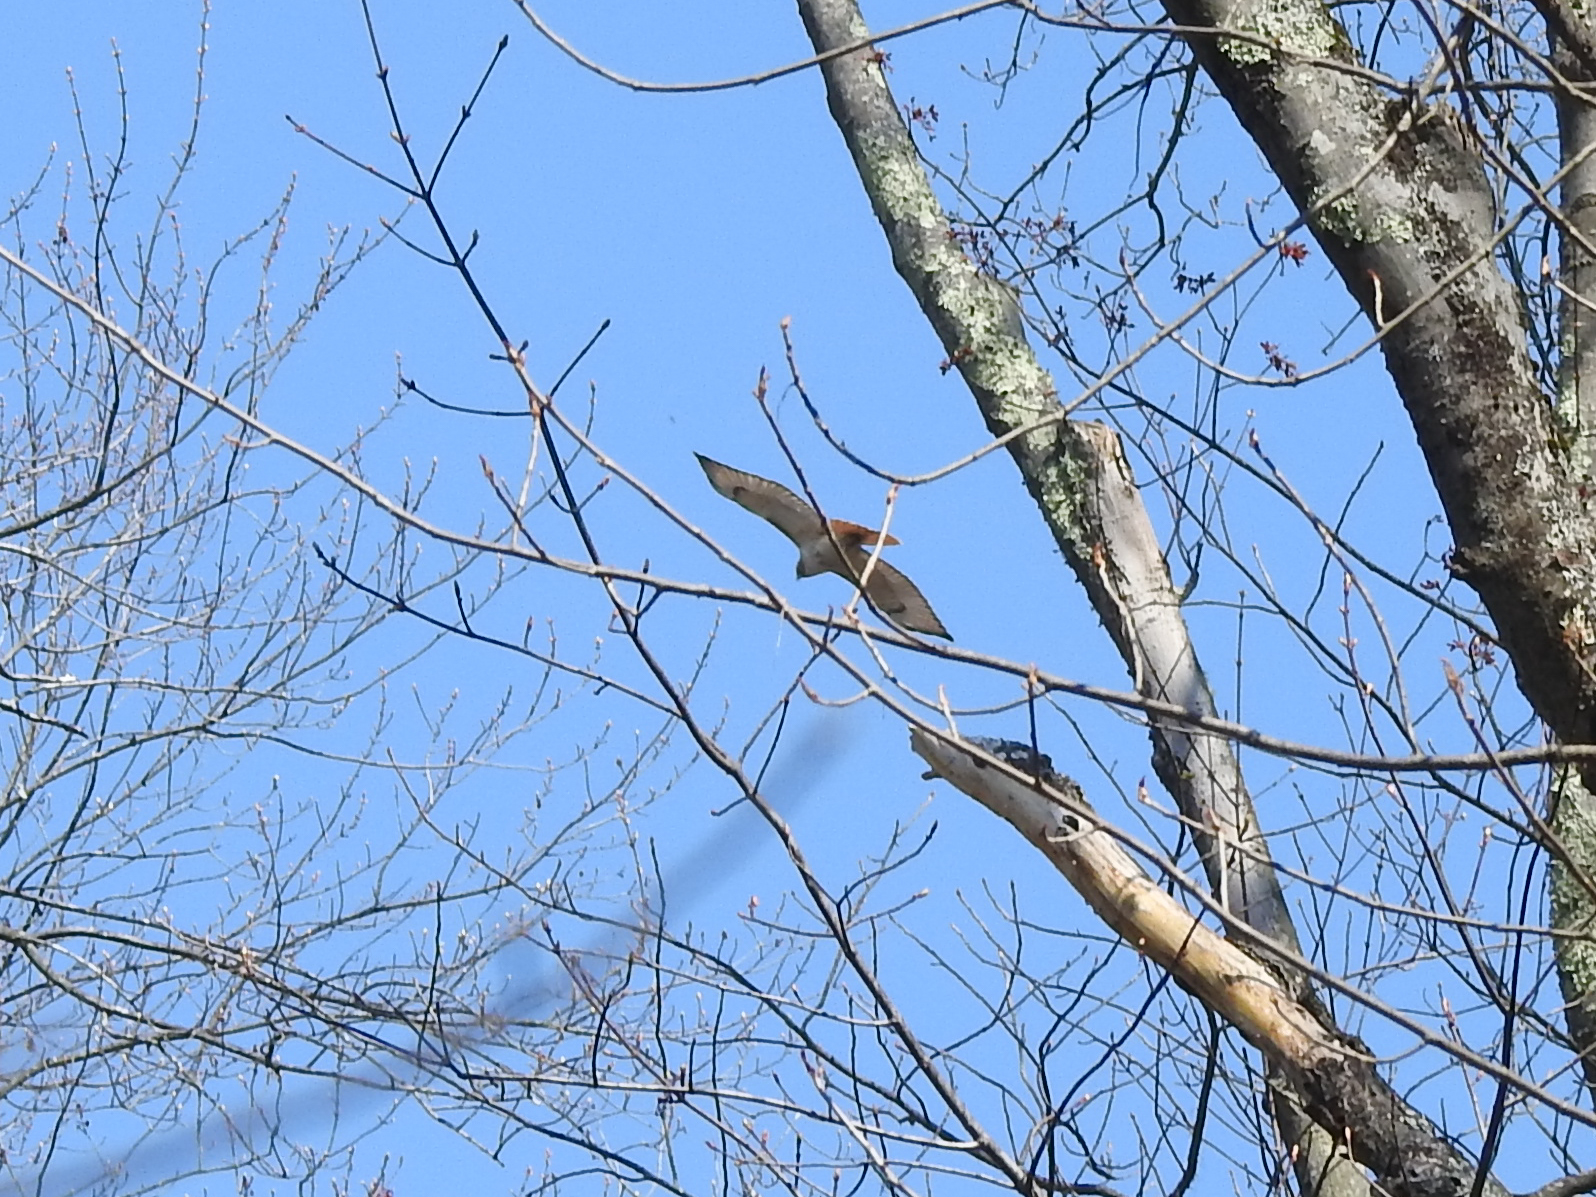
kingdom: Animalia
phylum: Chordata
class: Aves
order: Accipitriformes
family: Accipitridae
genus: Buteo
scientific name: Buteo jamaicensis
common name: Red-tailed hawk
